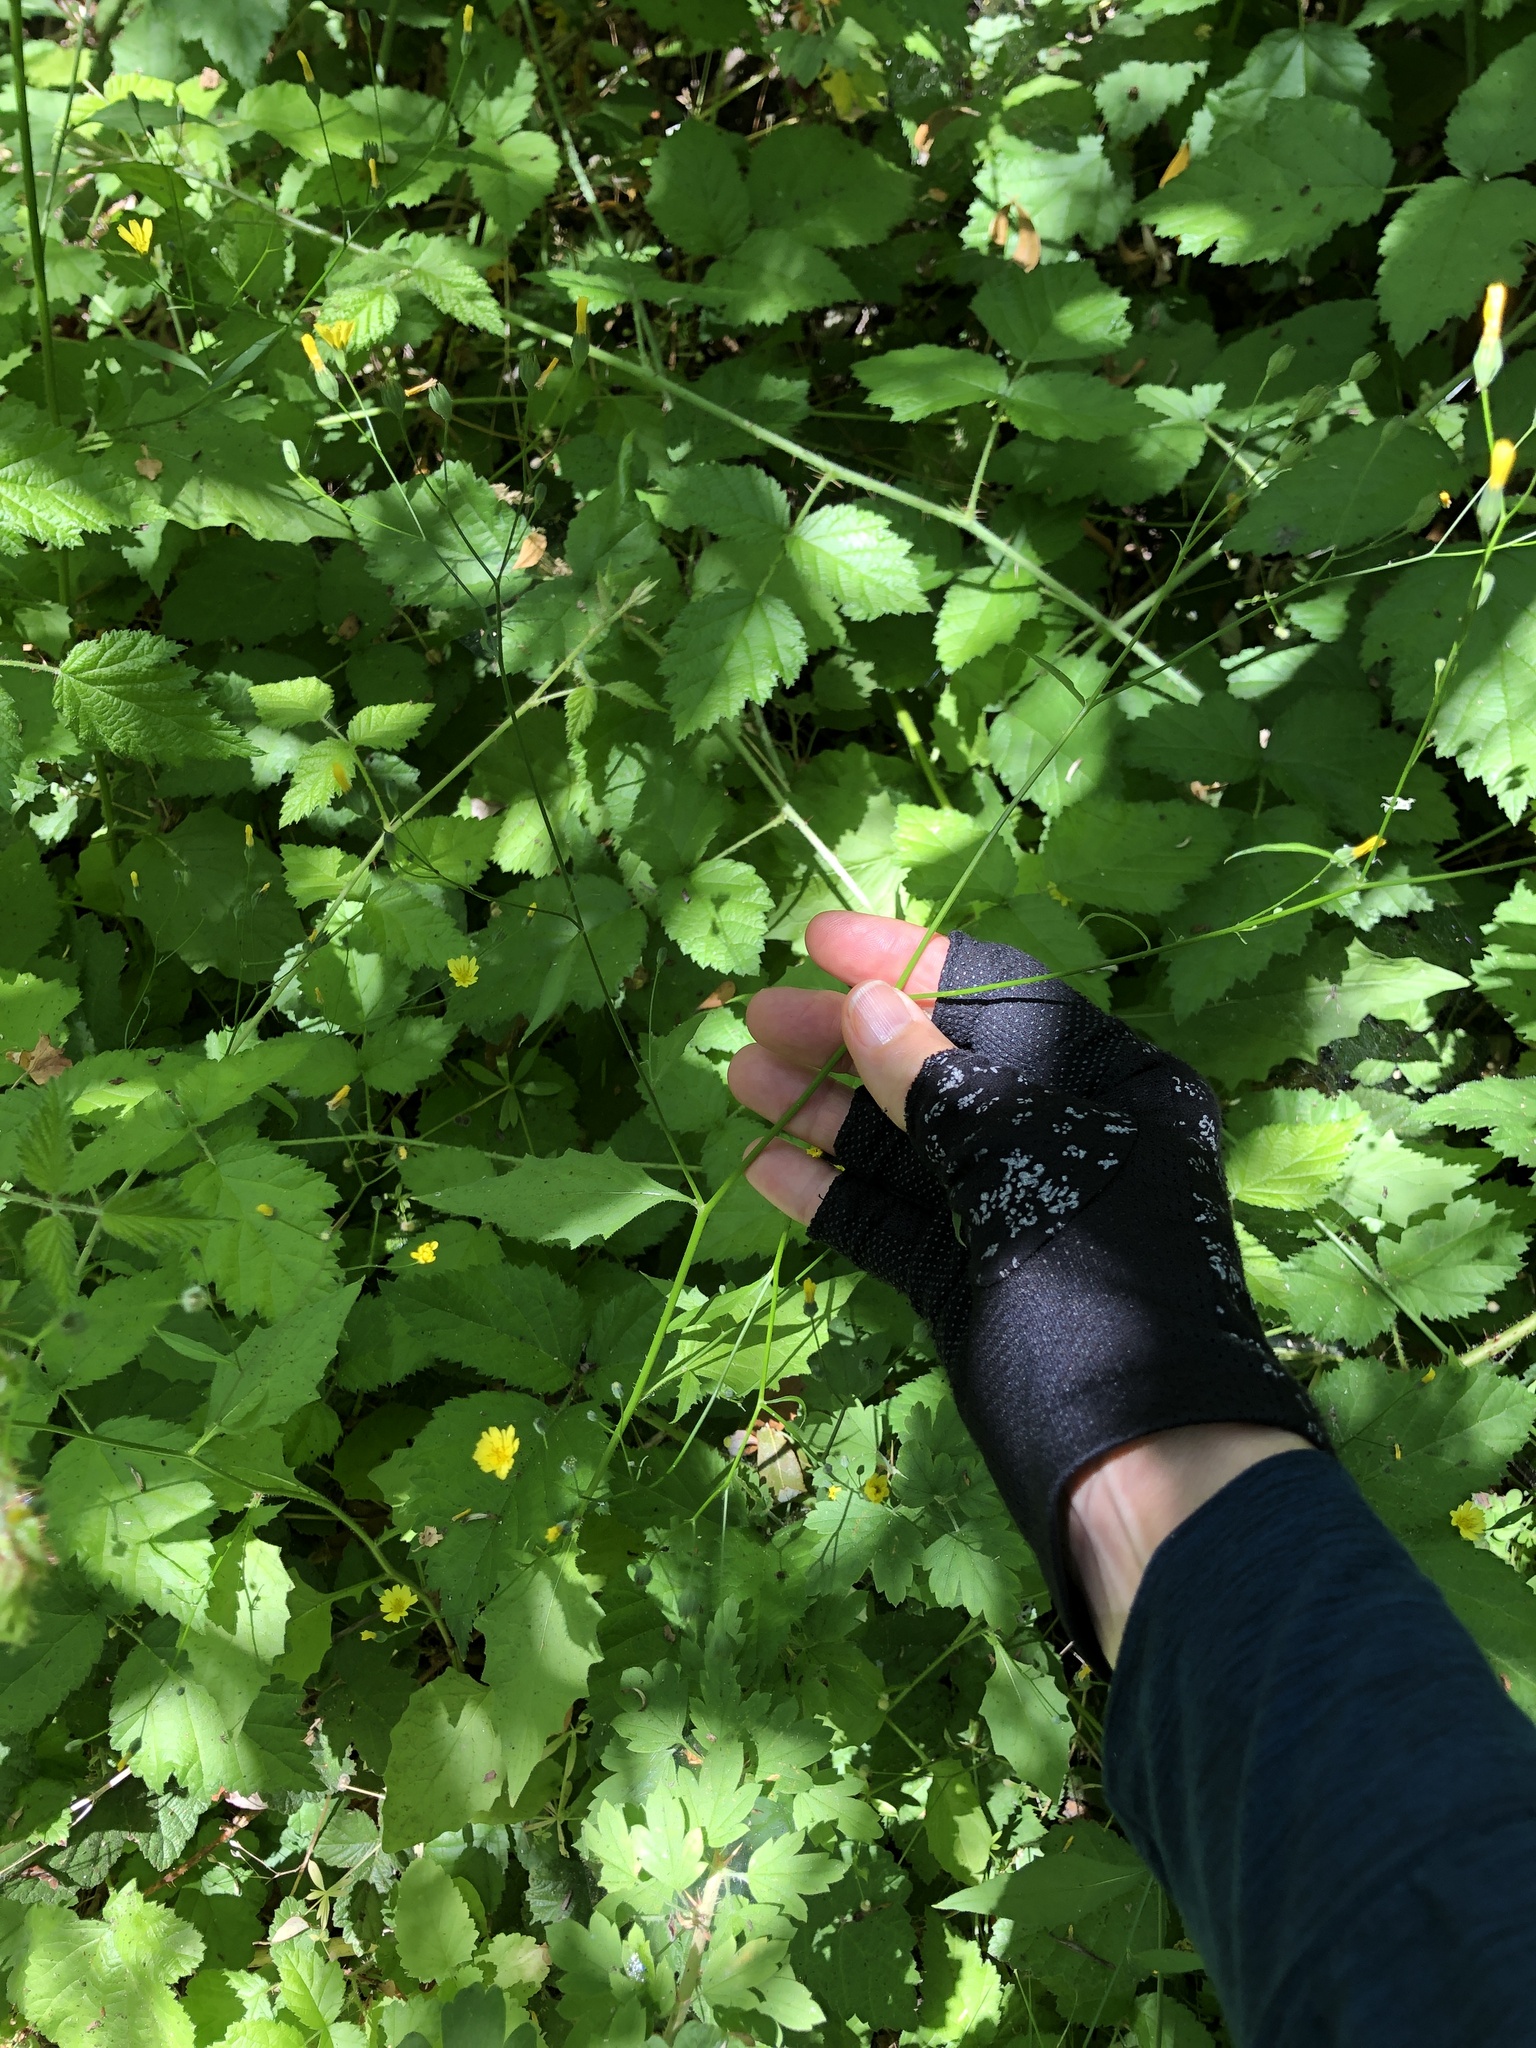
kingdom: Plantae
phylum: Tracheophyta
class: Magnoliopsida
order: Asterales
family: Asteraceae
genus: Lapsana
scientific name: Lapsana communis
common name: Nipplewort
